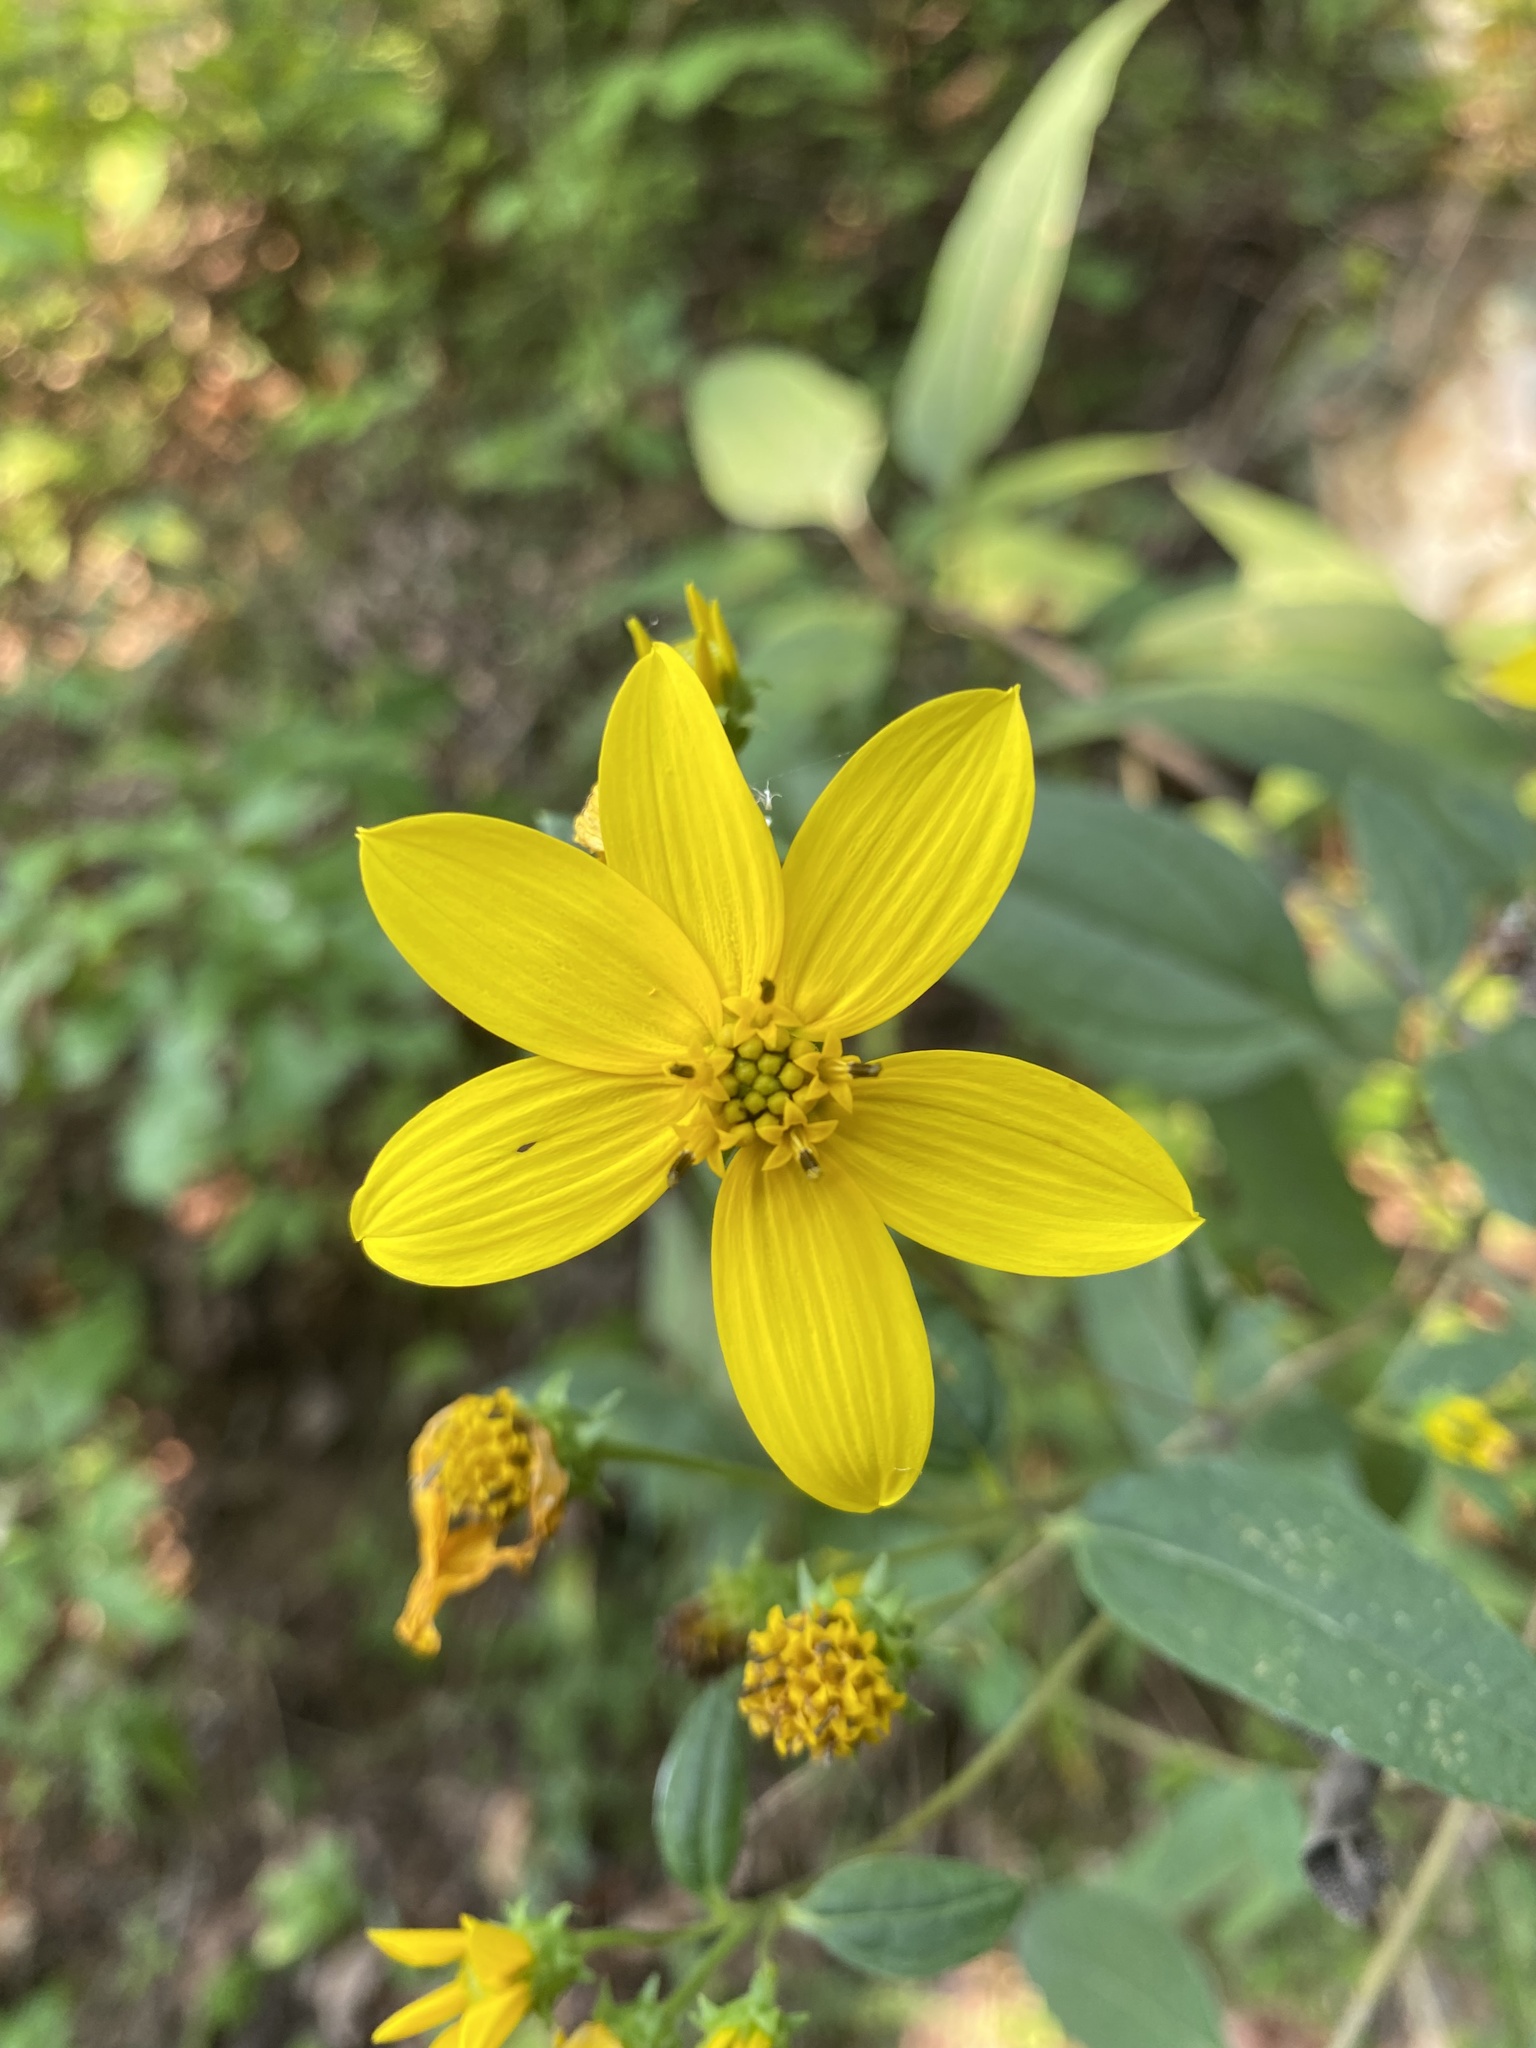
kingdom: Plantae
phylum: Tracheophyta
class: Magnoliopsida
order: Asterales
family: Asteraceae
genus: Helianthus
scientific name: Helianthus microcephalus
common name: Woodland sunflower
